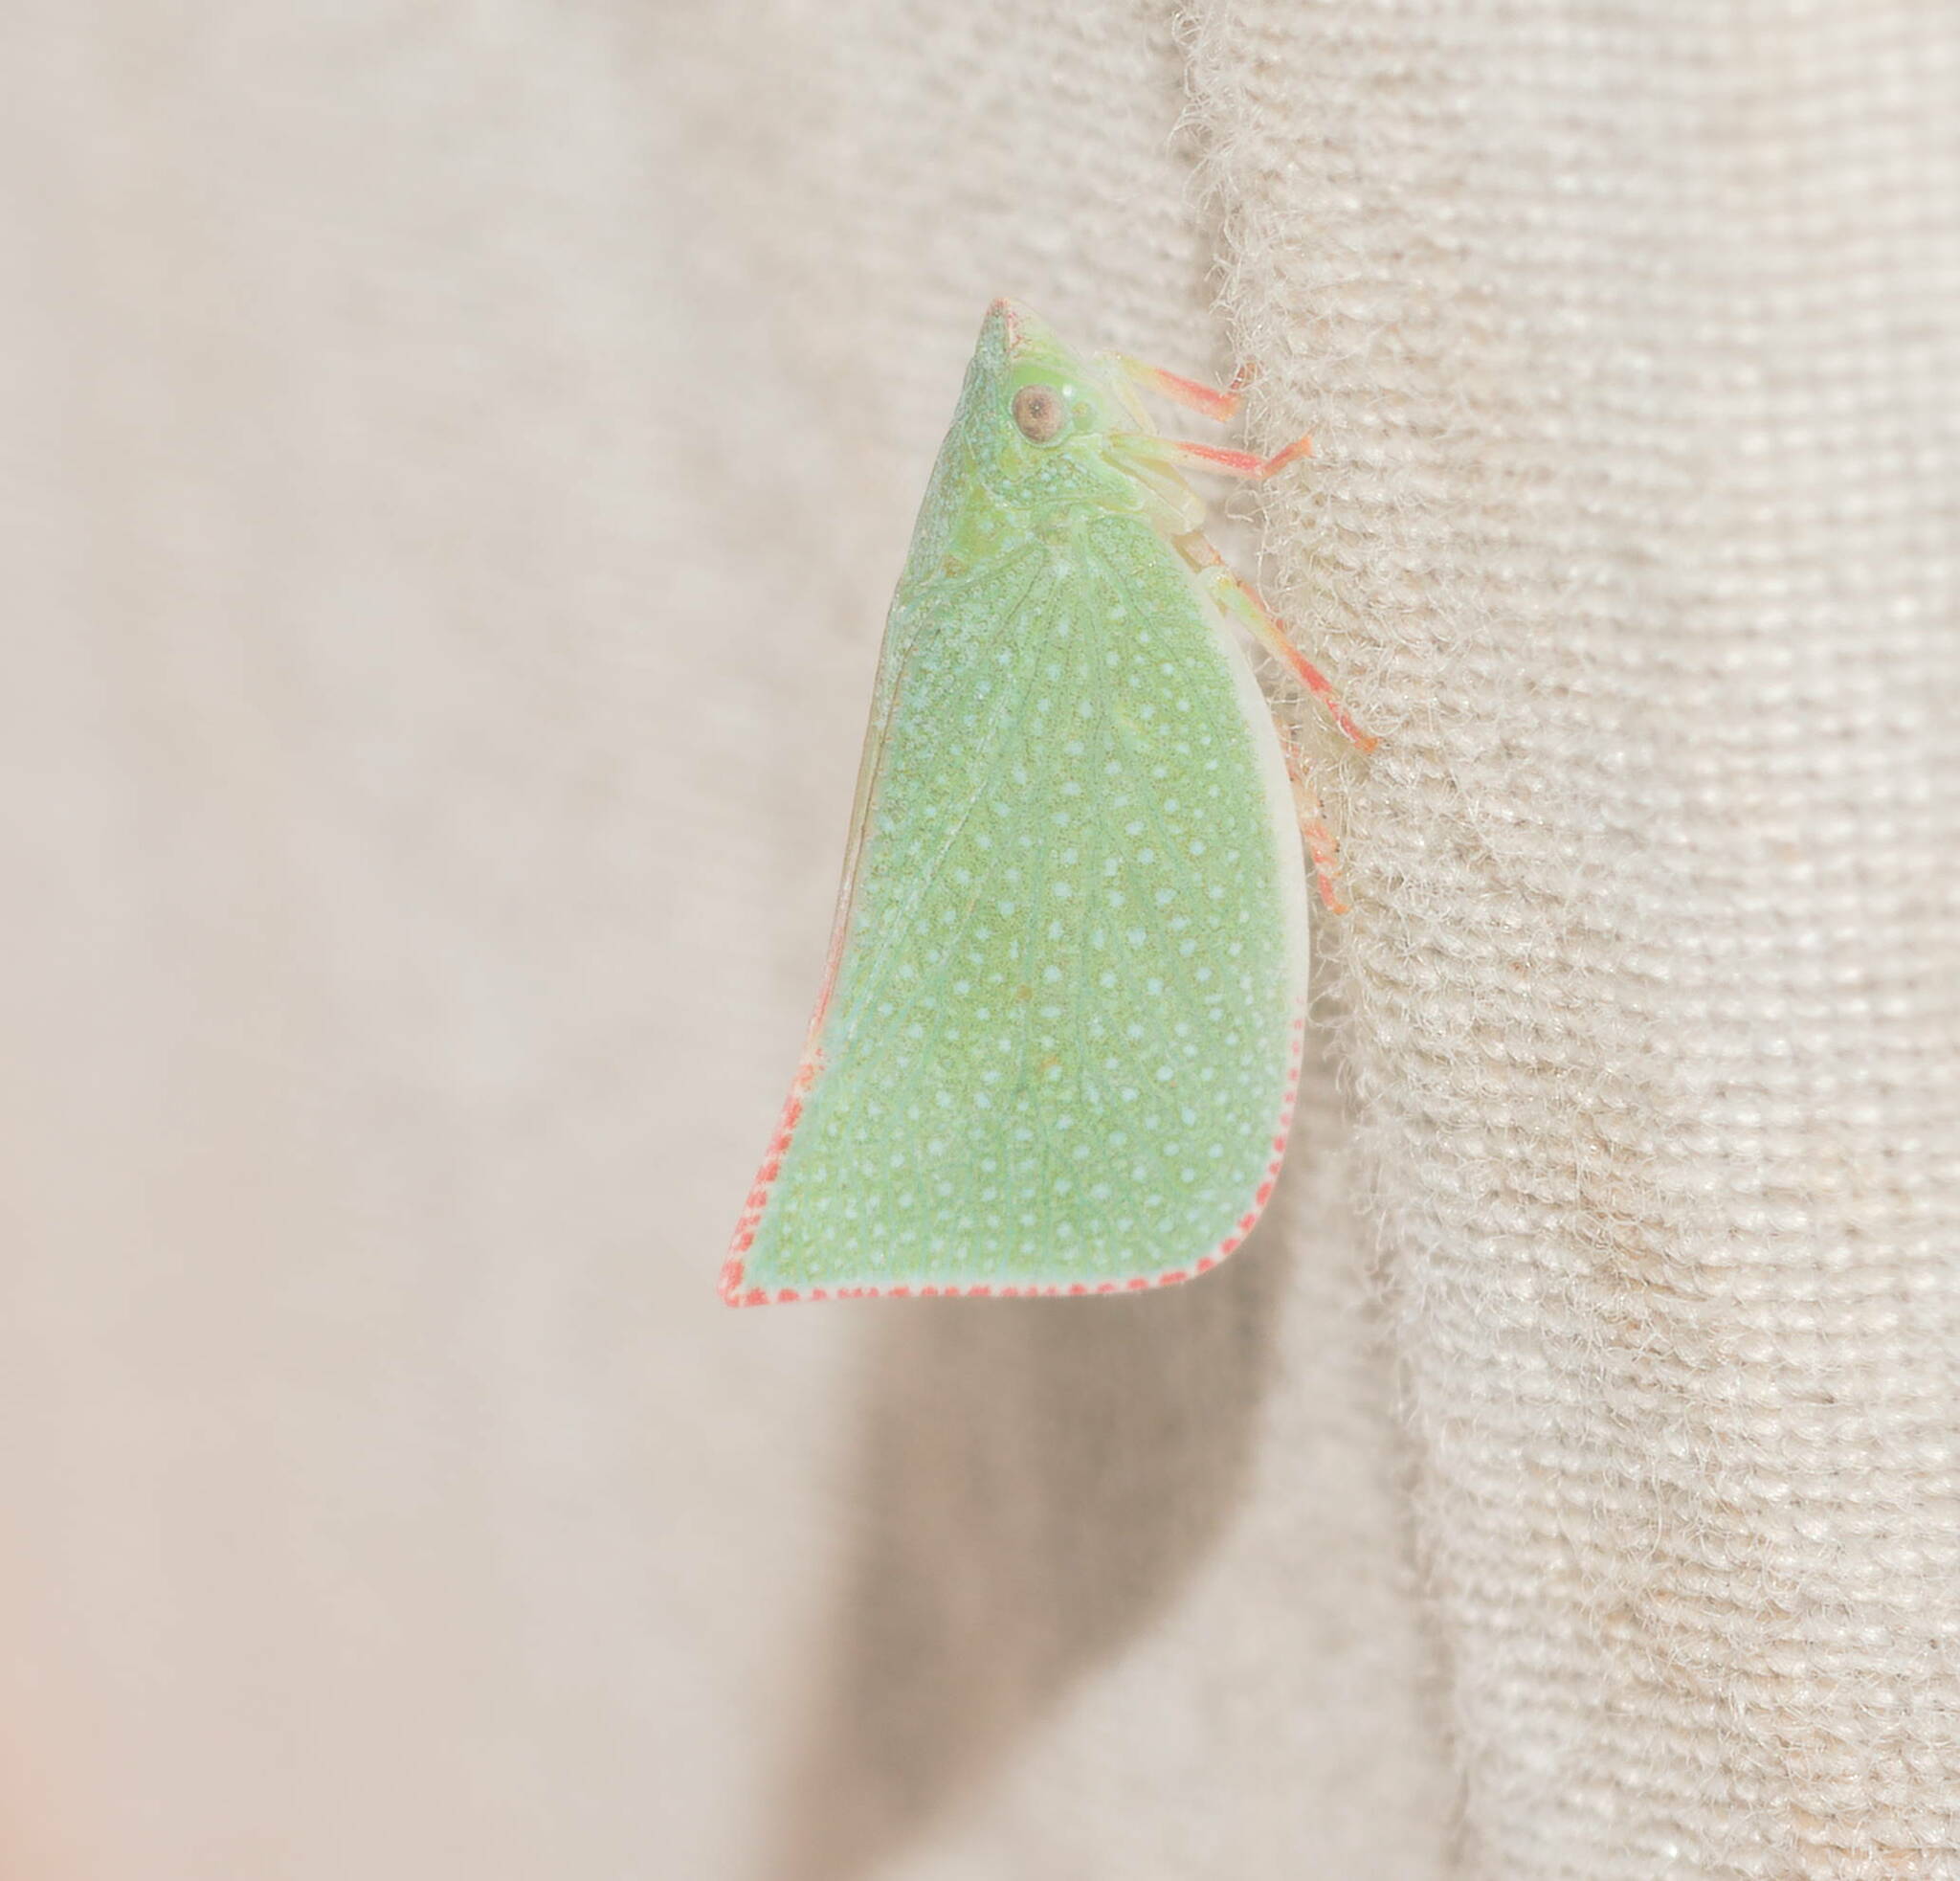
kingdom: Animalia
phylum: Arthropoda
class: Insecta
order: Hemiptera
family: Flatidae
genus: Siphanta
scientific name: Siphanta acuta
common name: Torpedo bug
